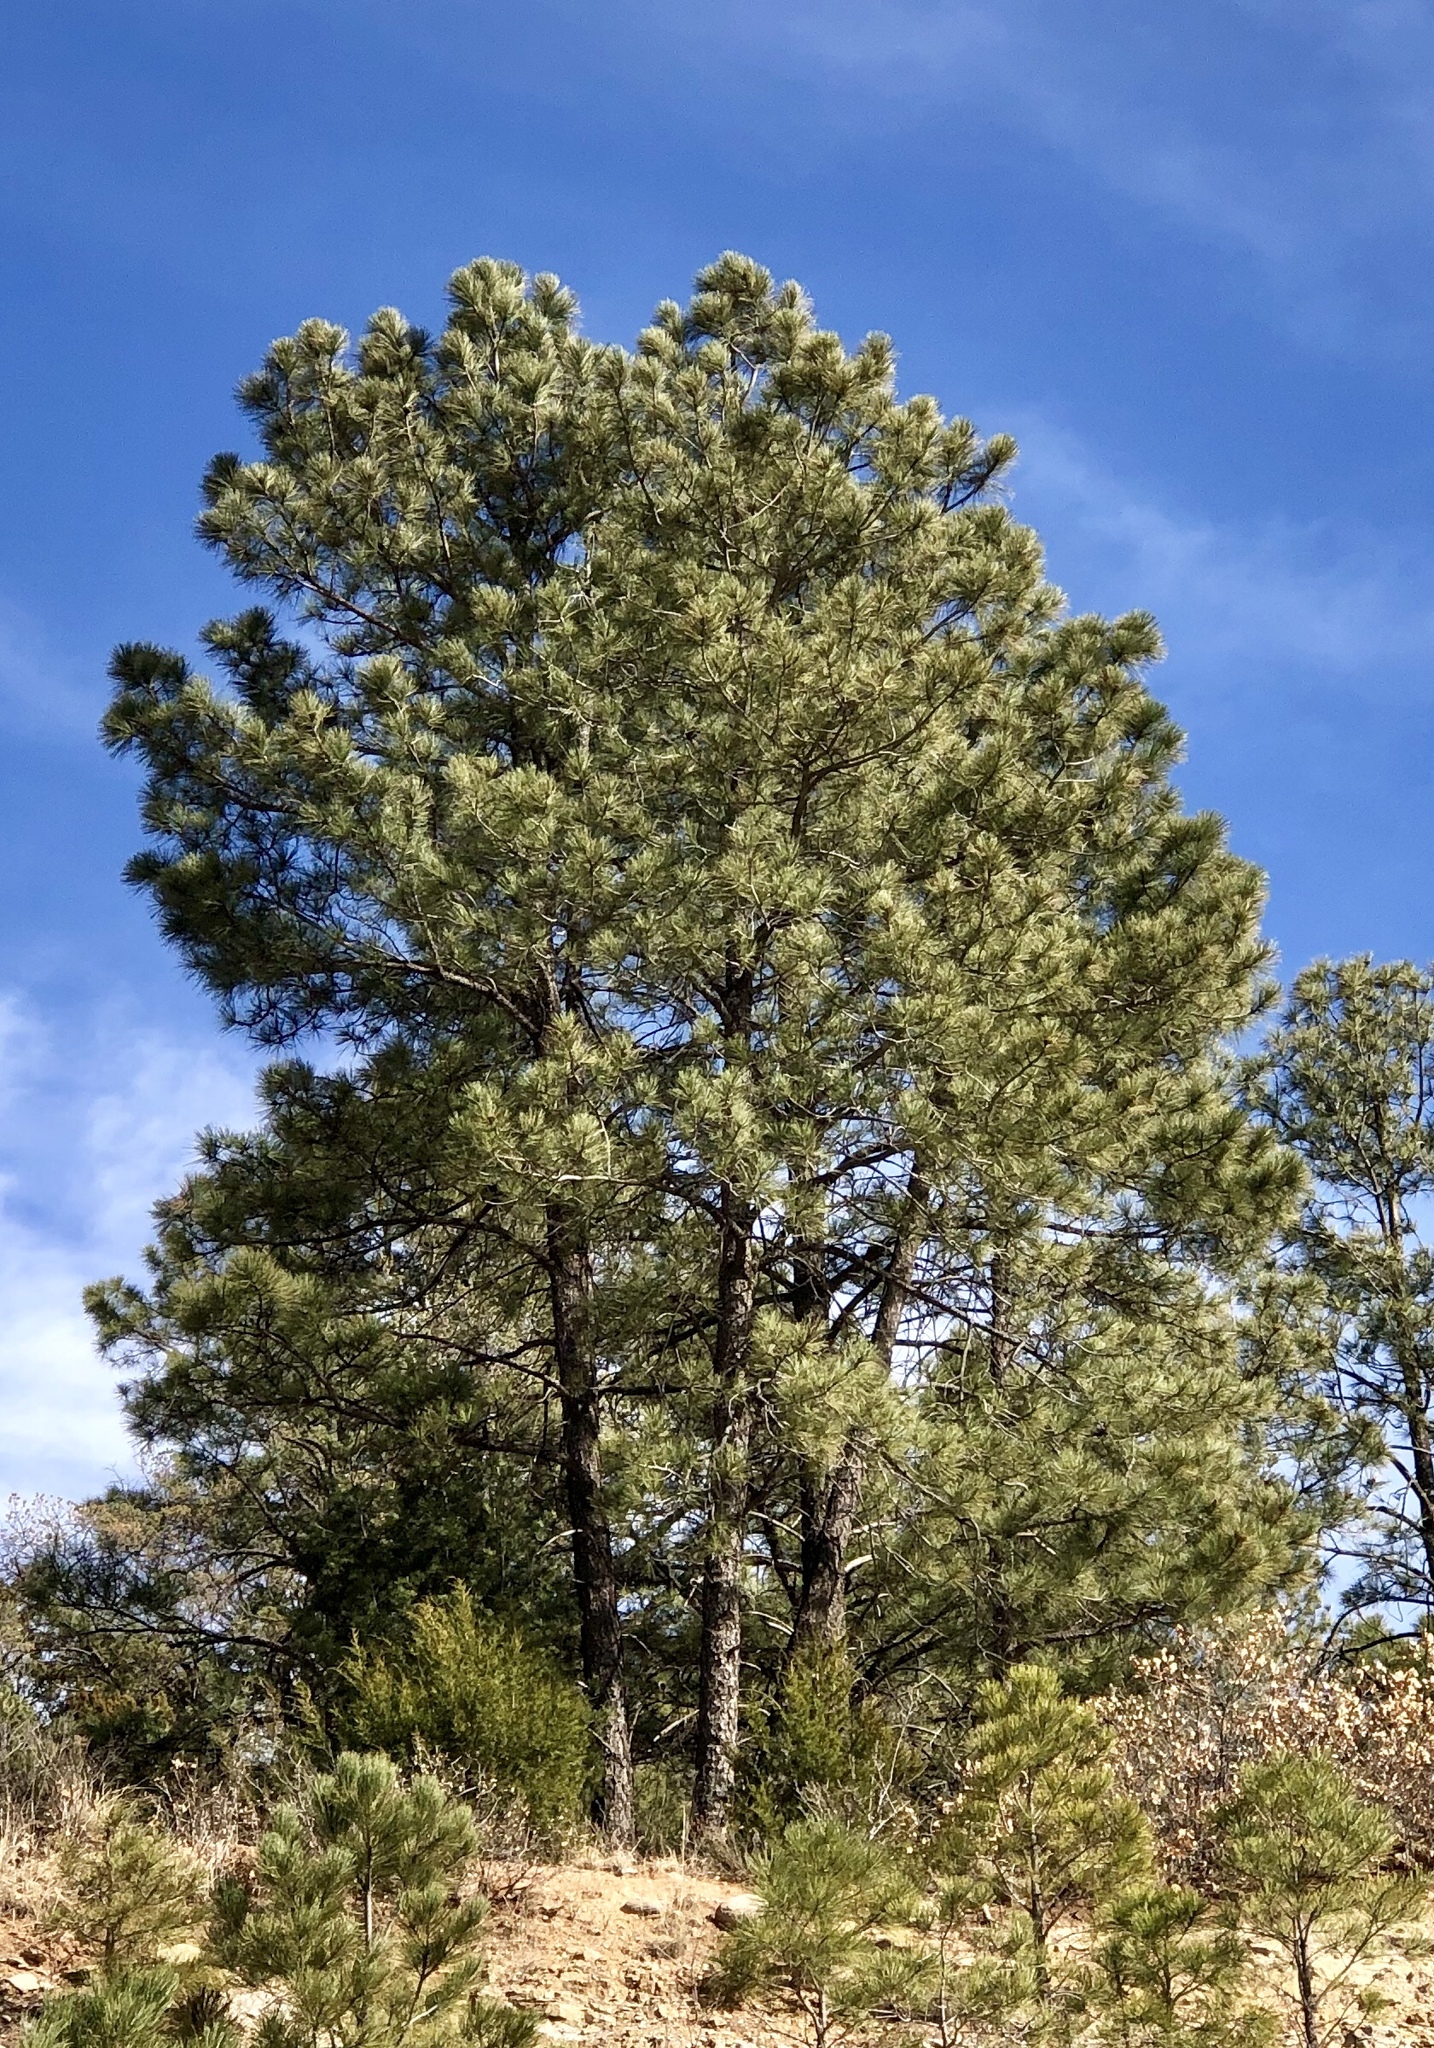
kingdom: Plantae
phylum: Tracheophyta
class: Pinopsida
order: Pinales
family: Pinaceae
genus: Pinus
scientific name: Pinus ponderosa
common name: Western yellow-pine
